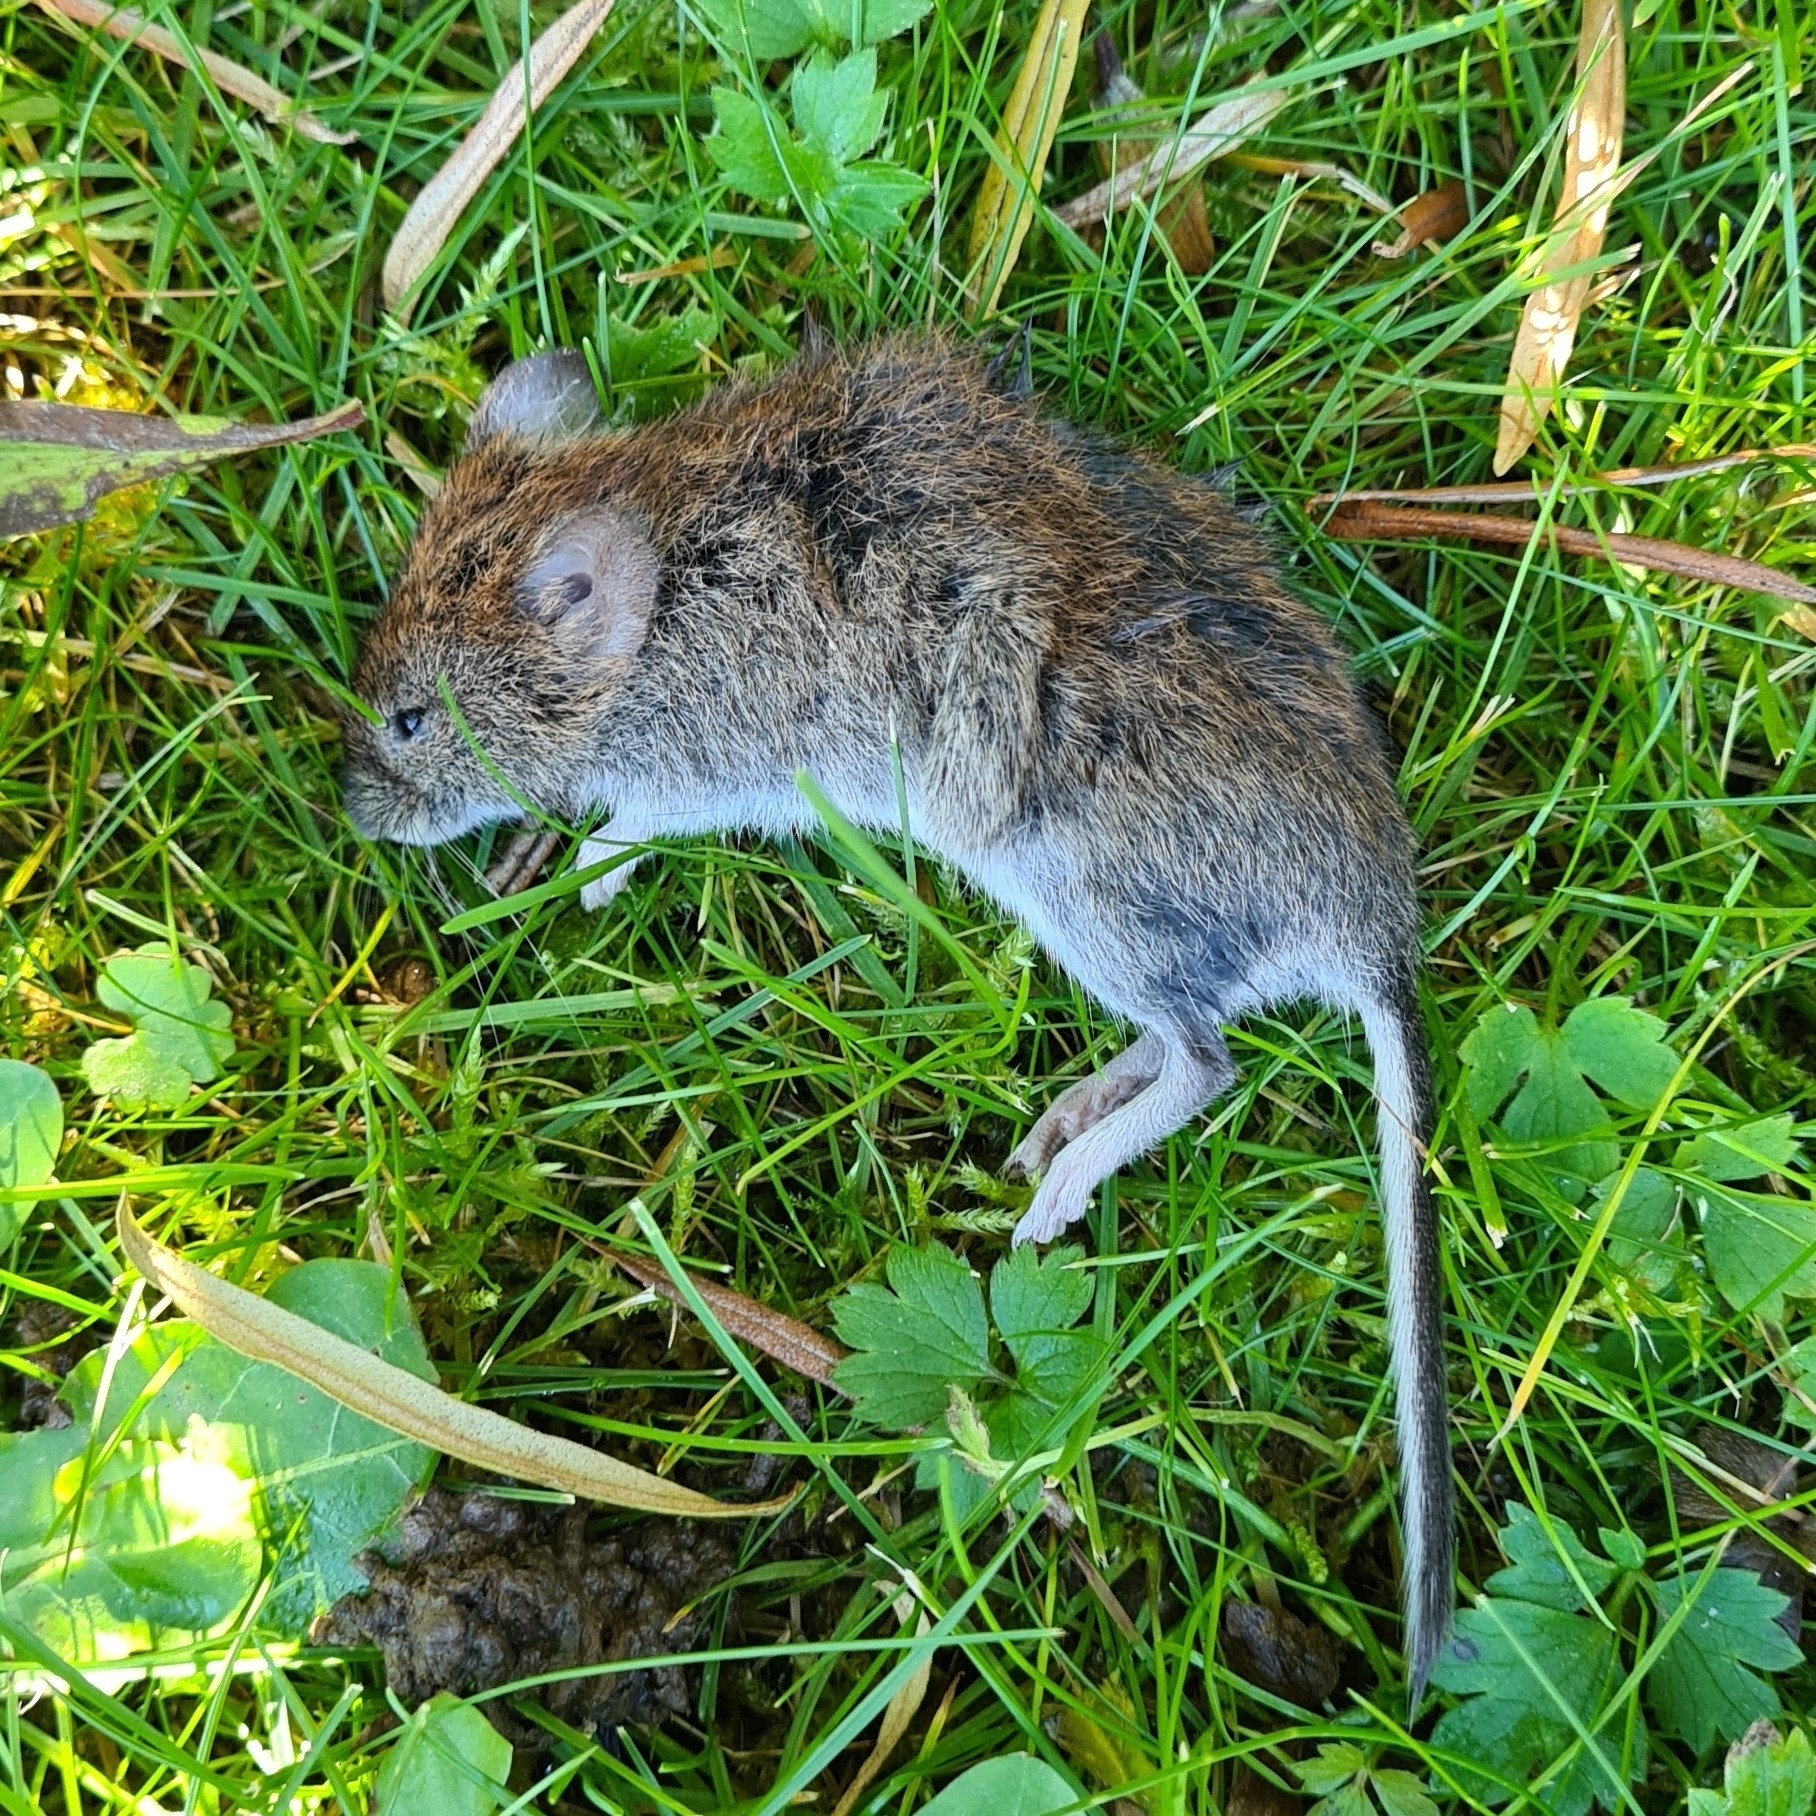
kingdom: Animalia
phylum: Chordata
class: Mammalia
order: Rodentia
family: Cricetidae
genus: Myodes
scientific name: Myodes glareolus
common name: Bank vole
